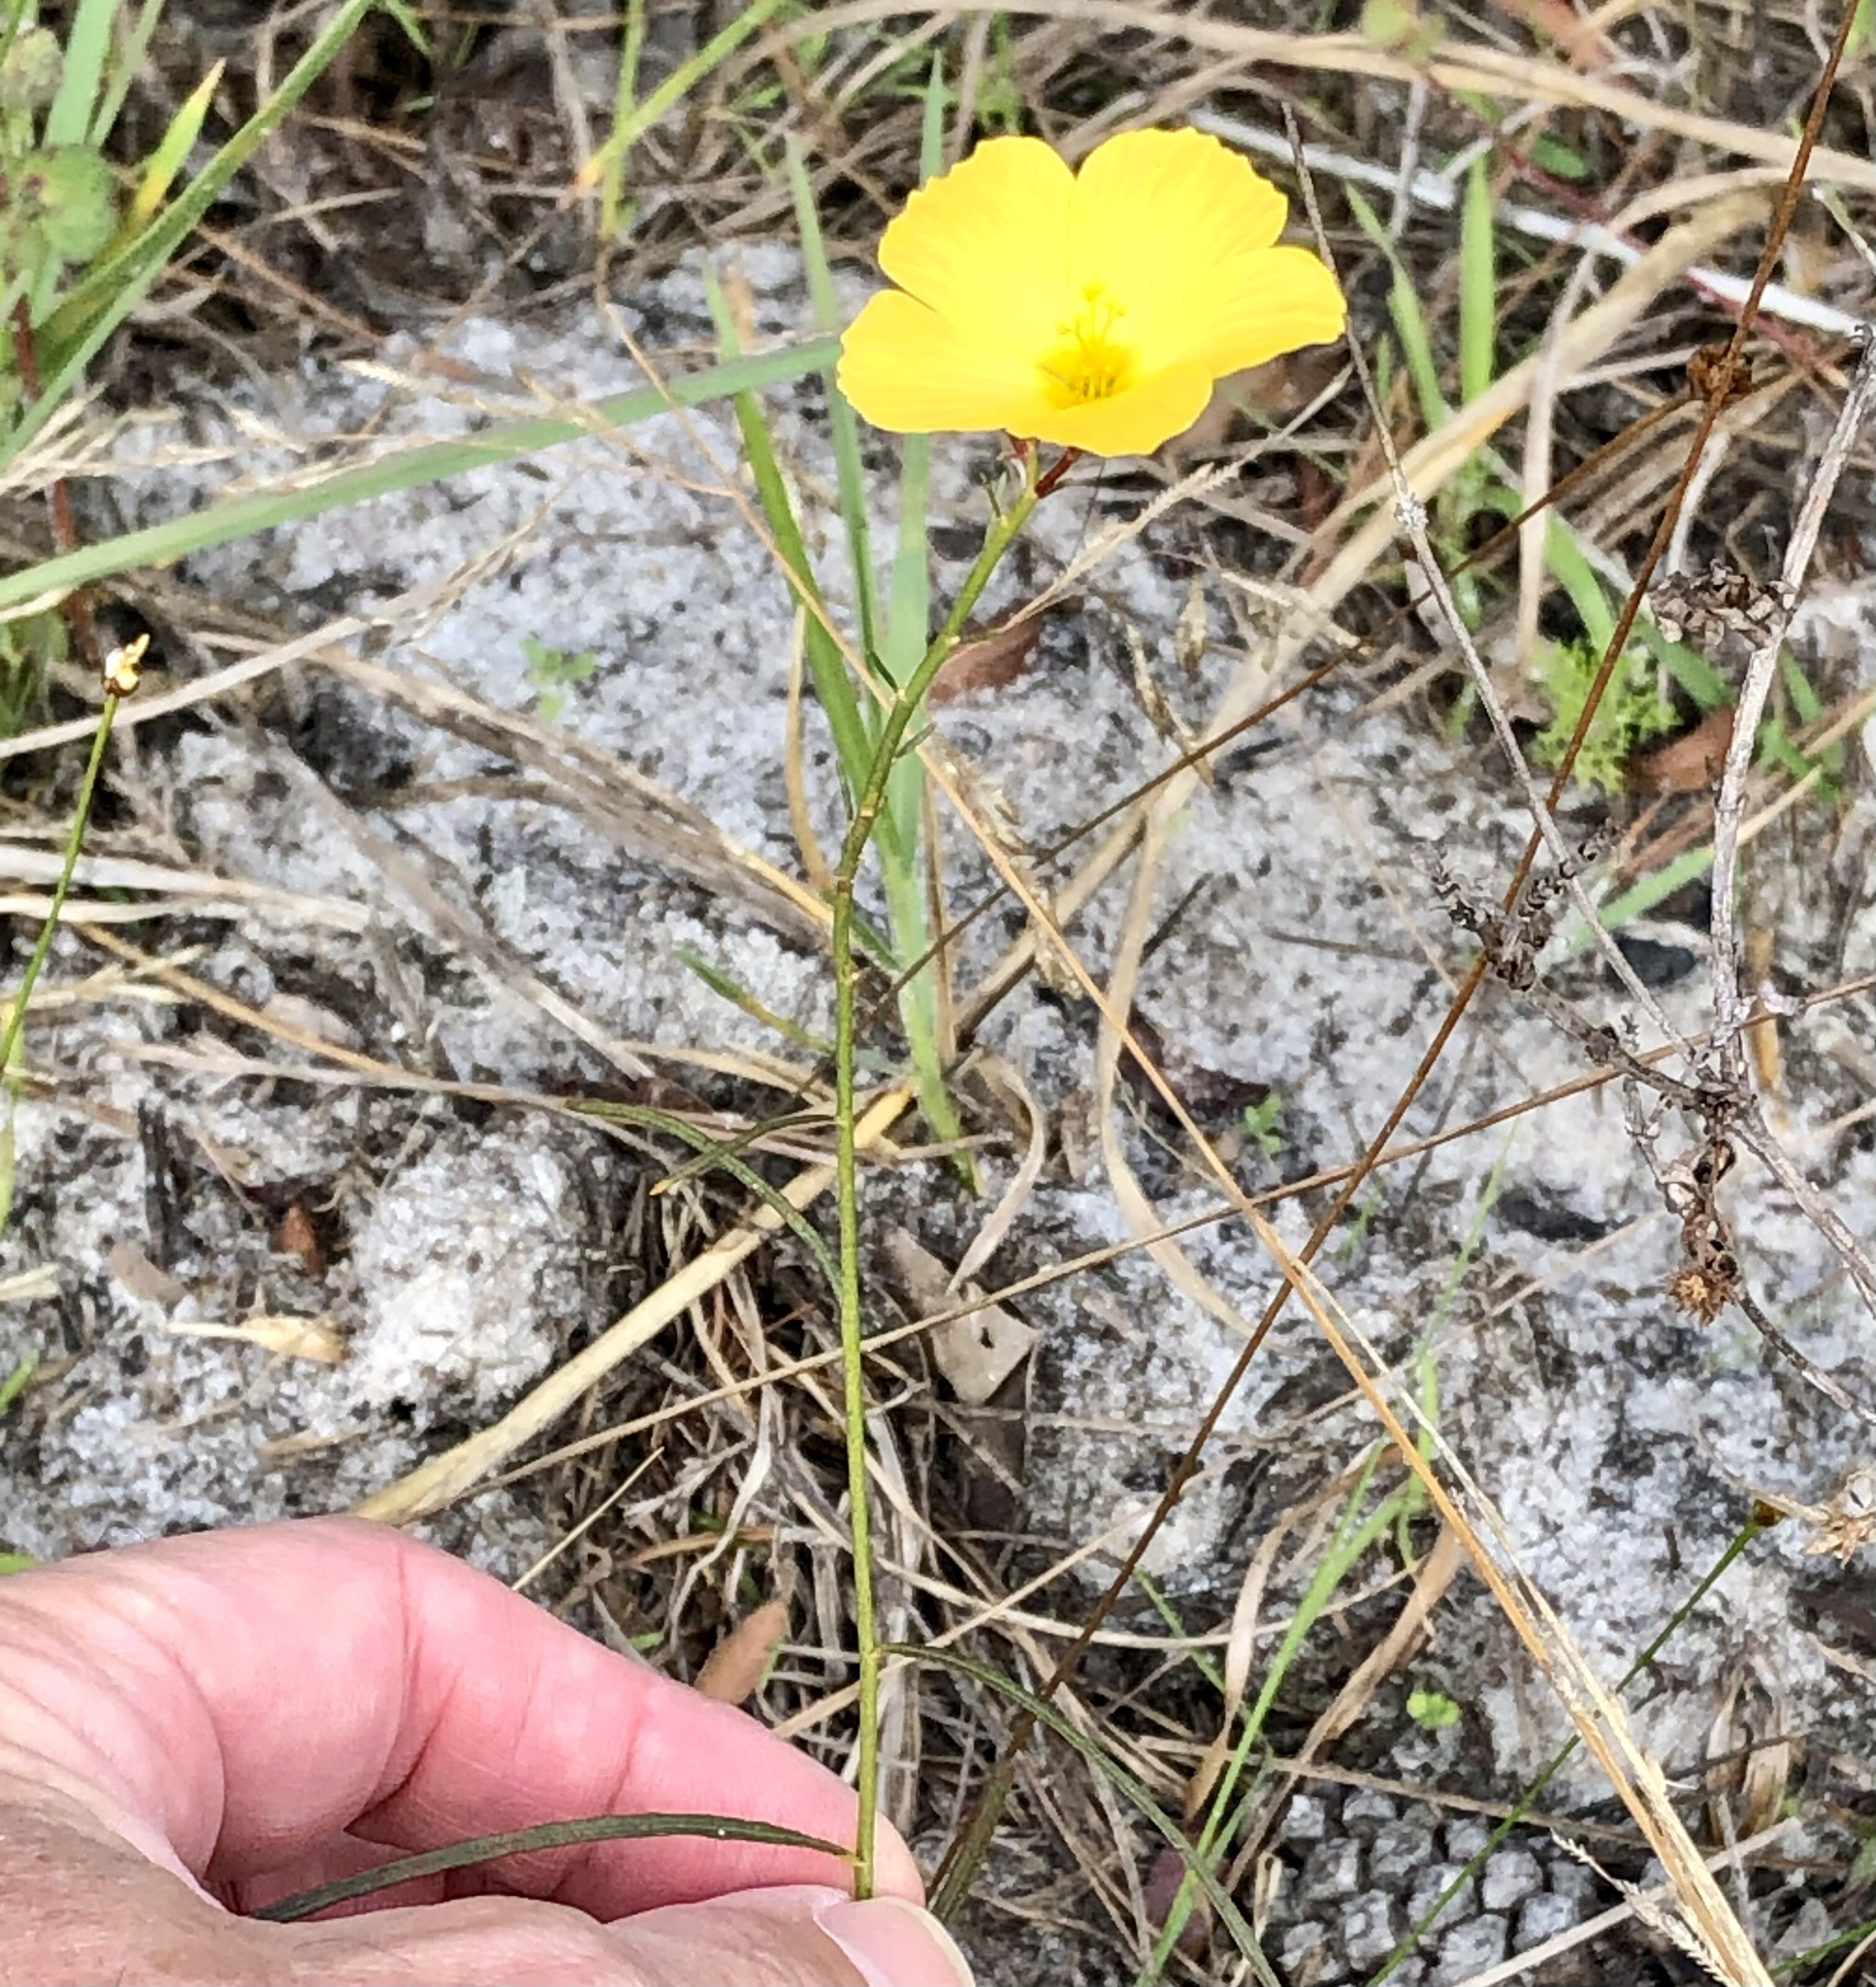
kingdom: Plantae
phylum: Tracheophyta
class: Magnoliopsida
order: Malpighiales
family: Turneraceae
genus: Piriqueta
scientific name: Piriqueta cistoides
